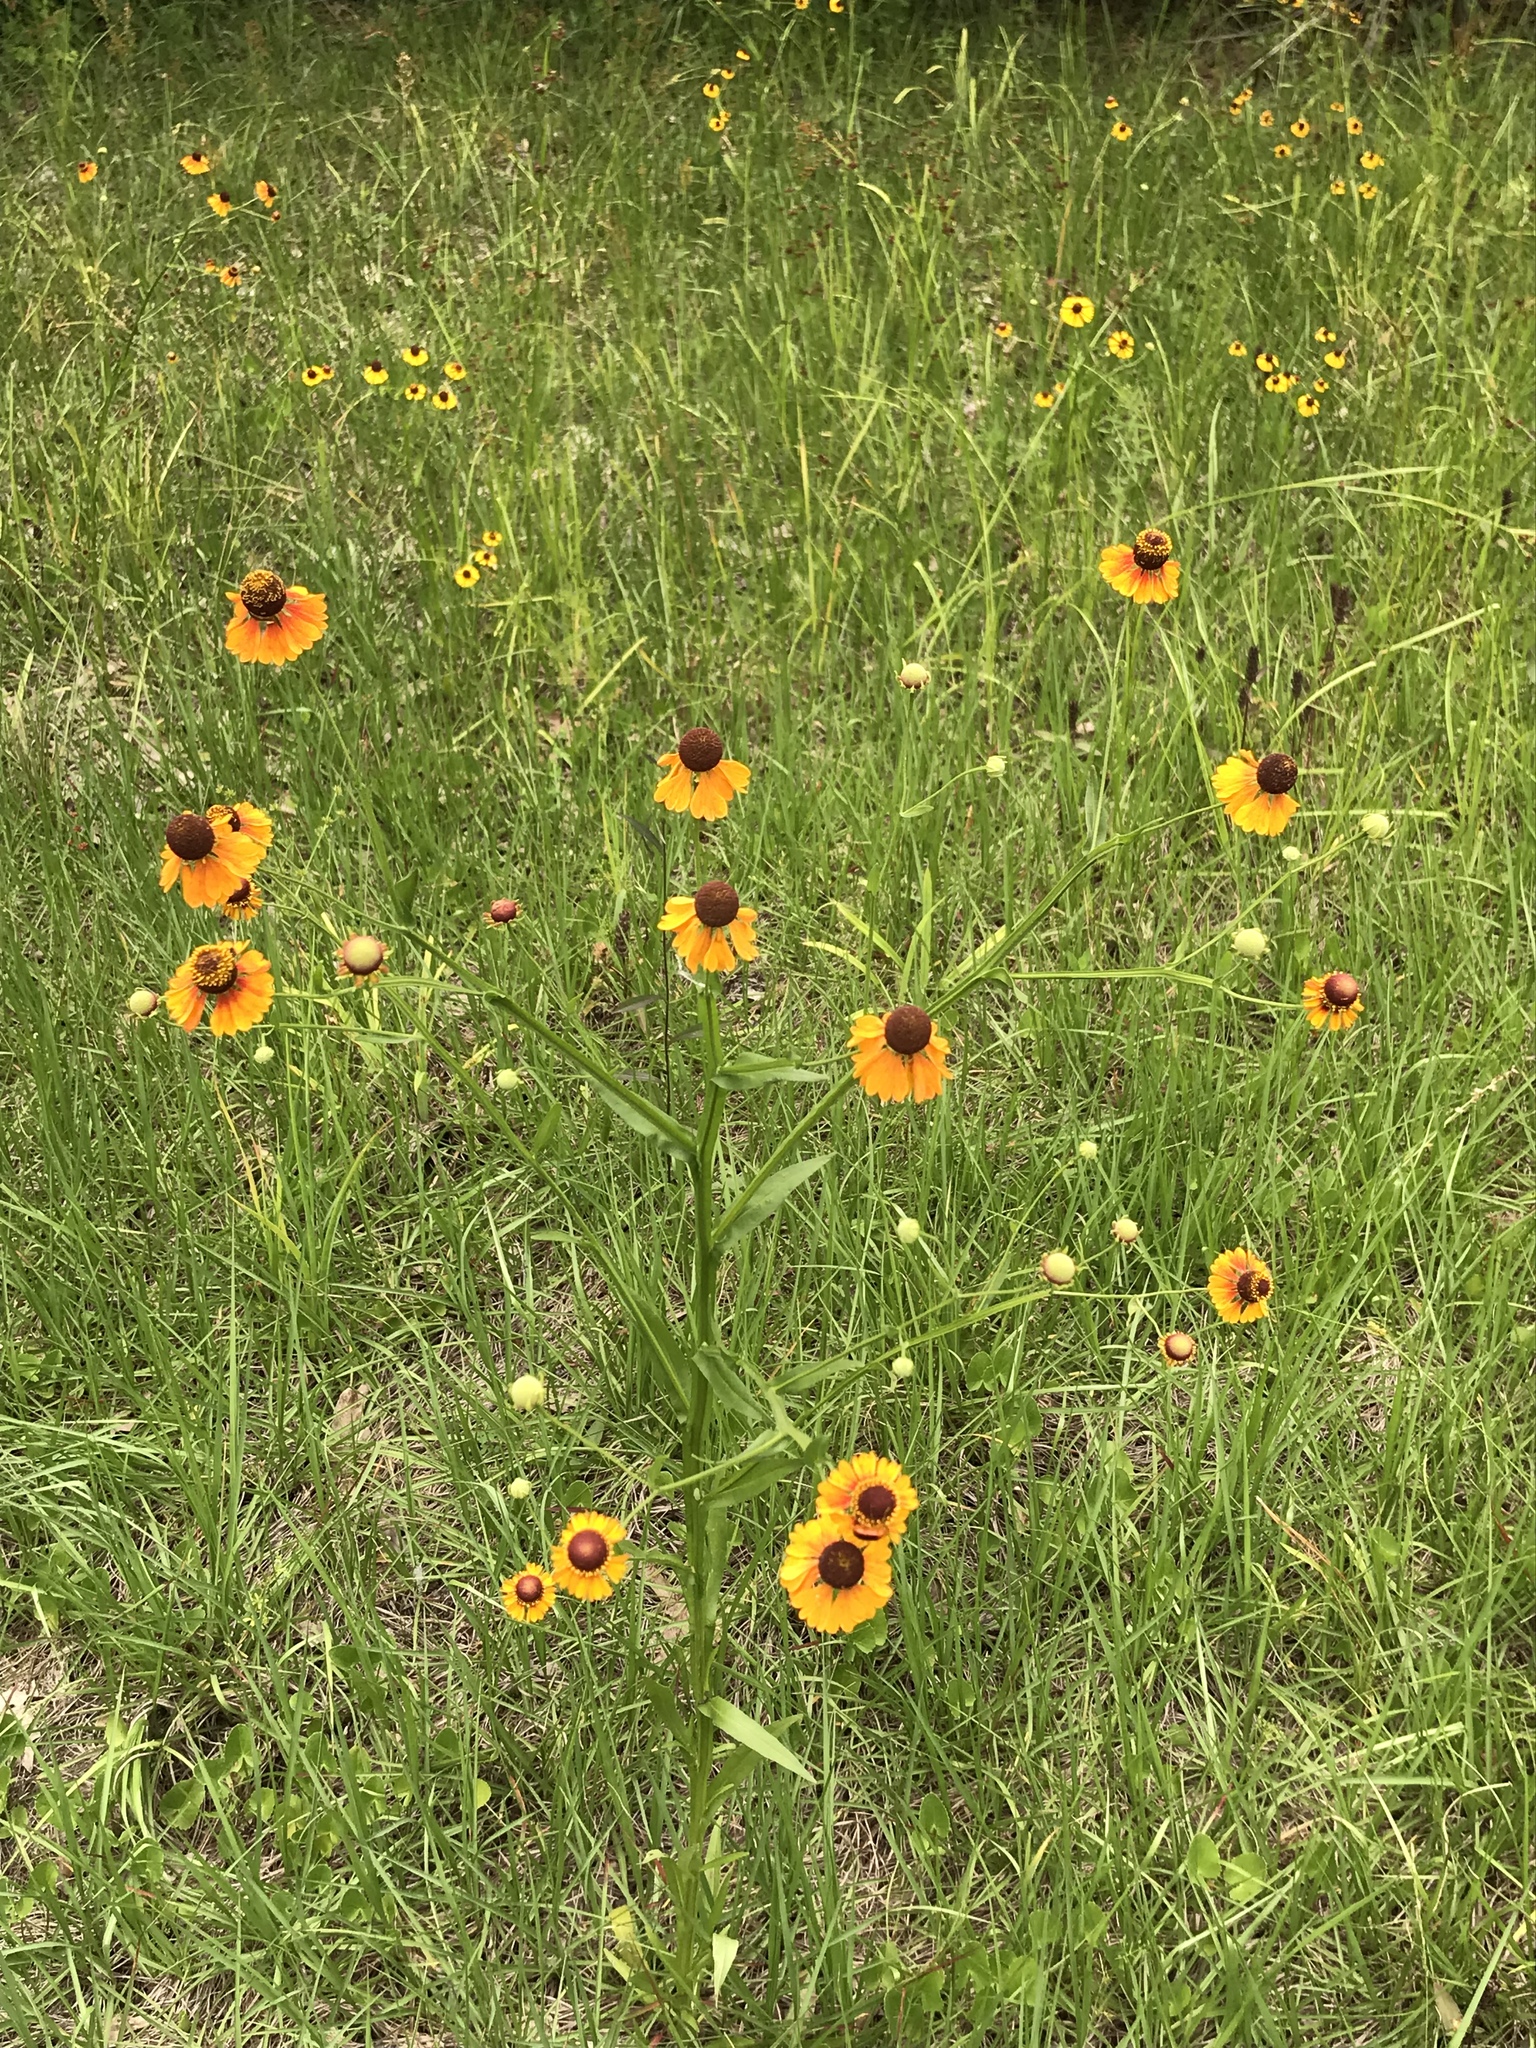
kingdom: Plantae
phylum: Tracheophyta
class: Magnoliopsida
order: Asterales
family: Asteraceae
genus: Helenium
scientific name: Helenium flexuosum
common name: Naked-flowered sneezeweed
